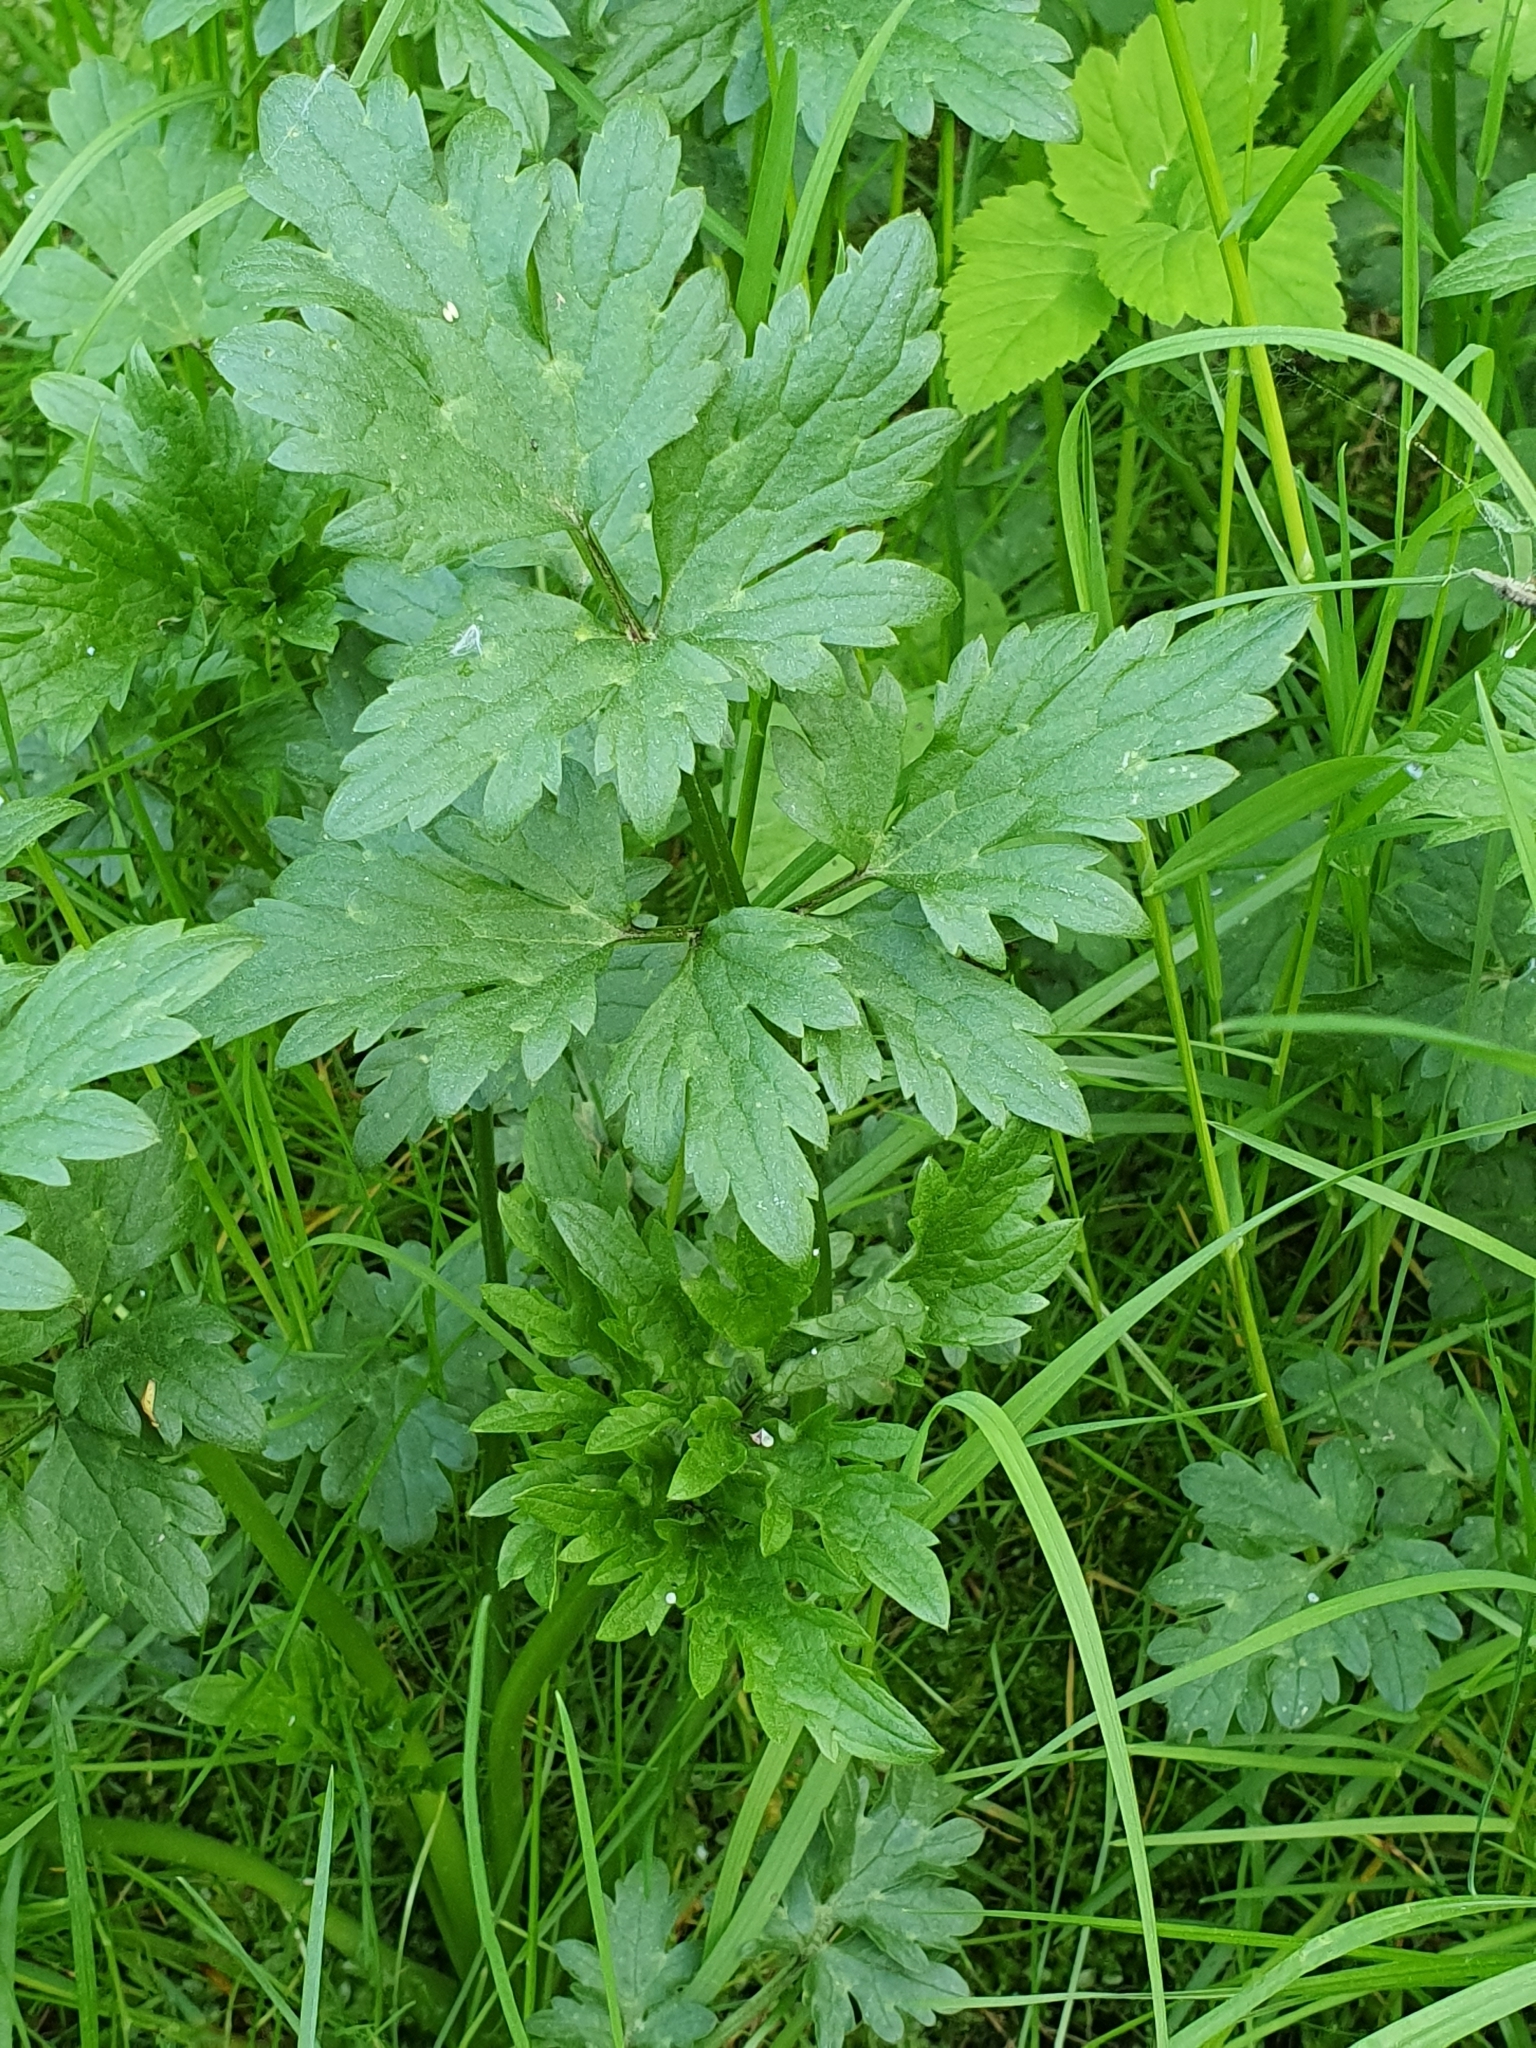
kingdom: Plantae
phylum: Tracheophyta
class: Magnoliopsida
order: Ranunculales
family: Ranunculaceae
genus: Ranunculus
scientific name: Ranunculus repens
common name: Creeping buttercup
